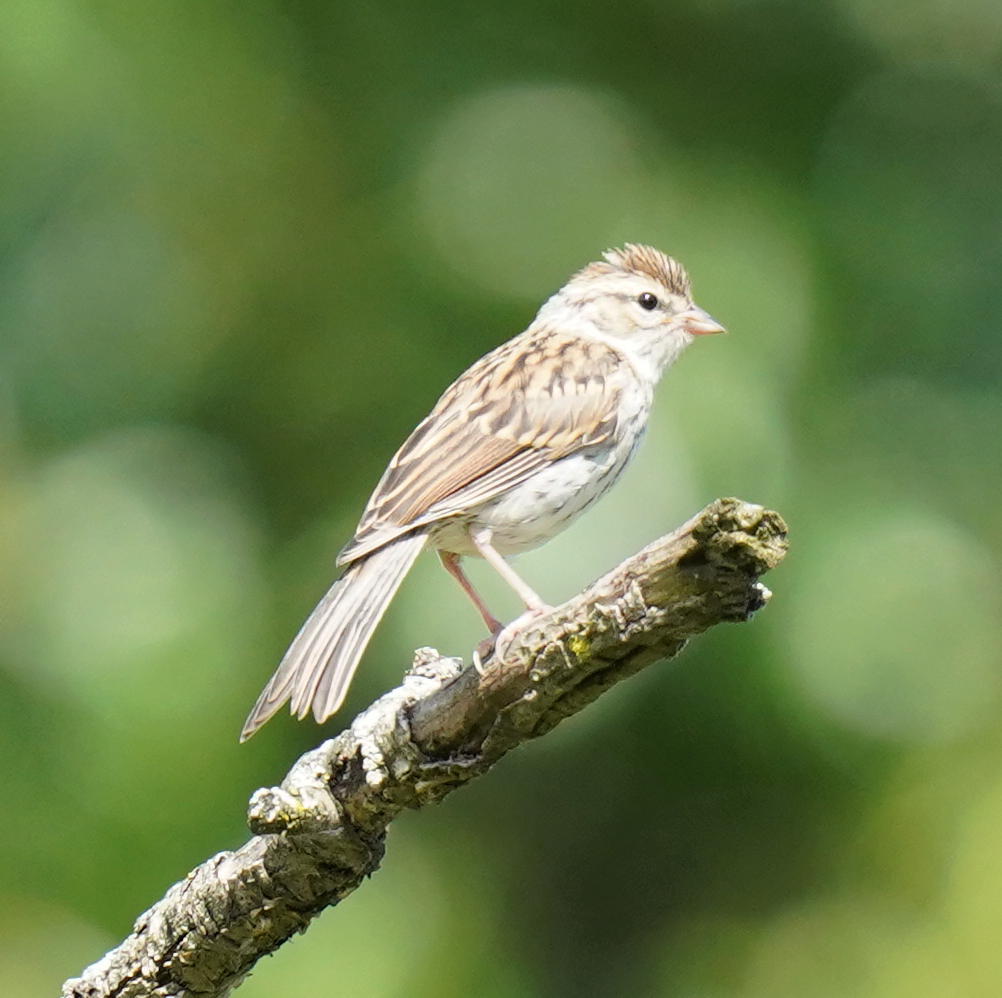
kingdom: Animalia
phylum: Chordata
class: Aves
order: Passeriformes
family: Passerellidae
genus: Spizella
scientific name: Spizella passerina
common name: Chipping sparrow
